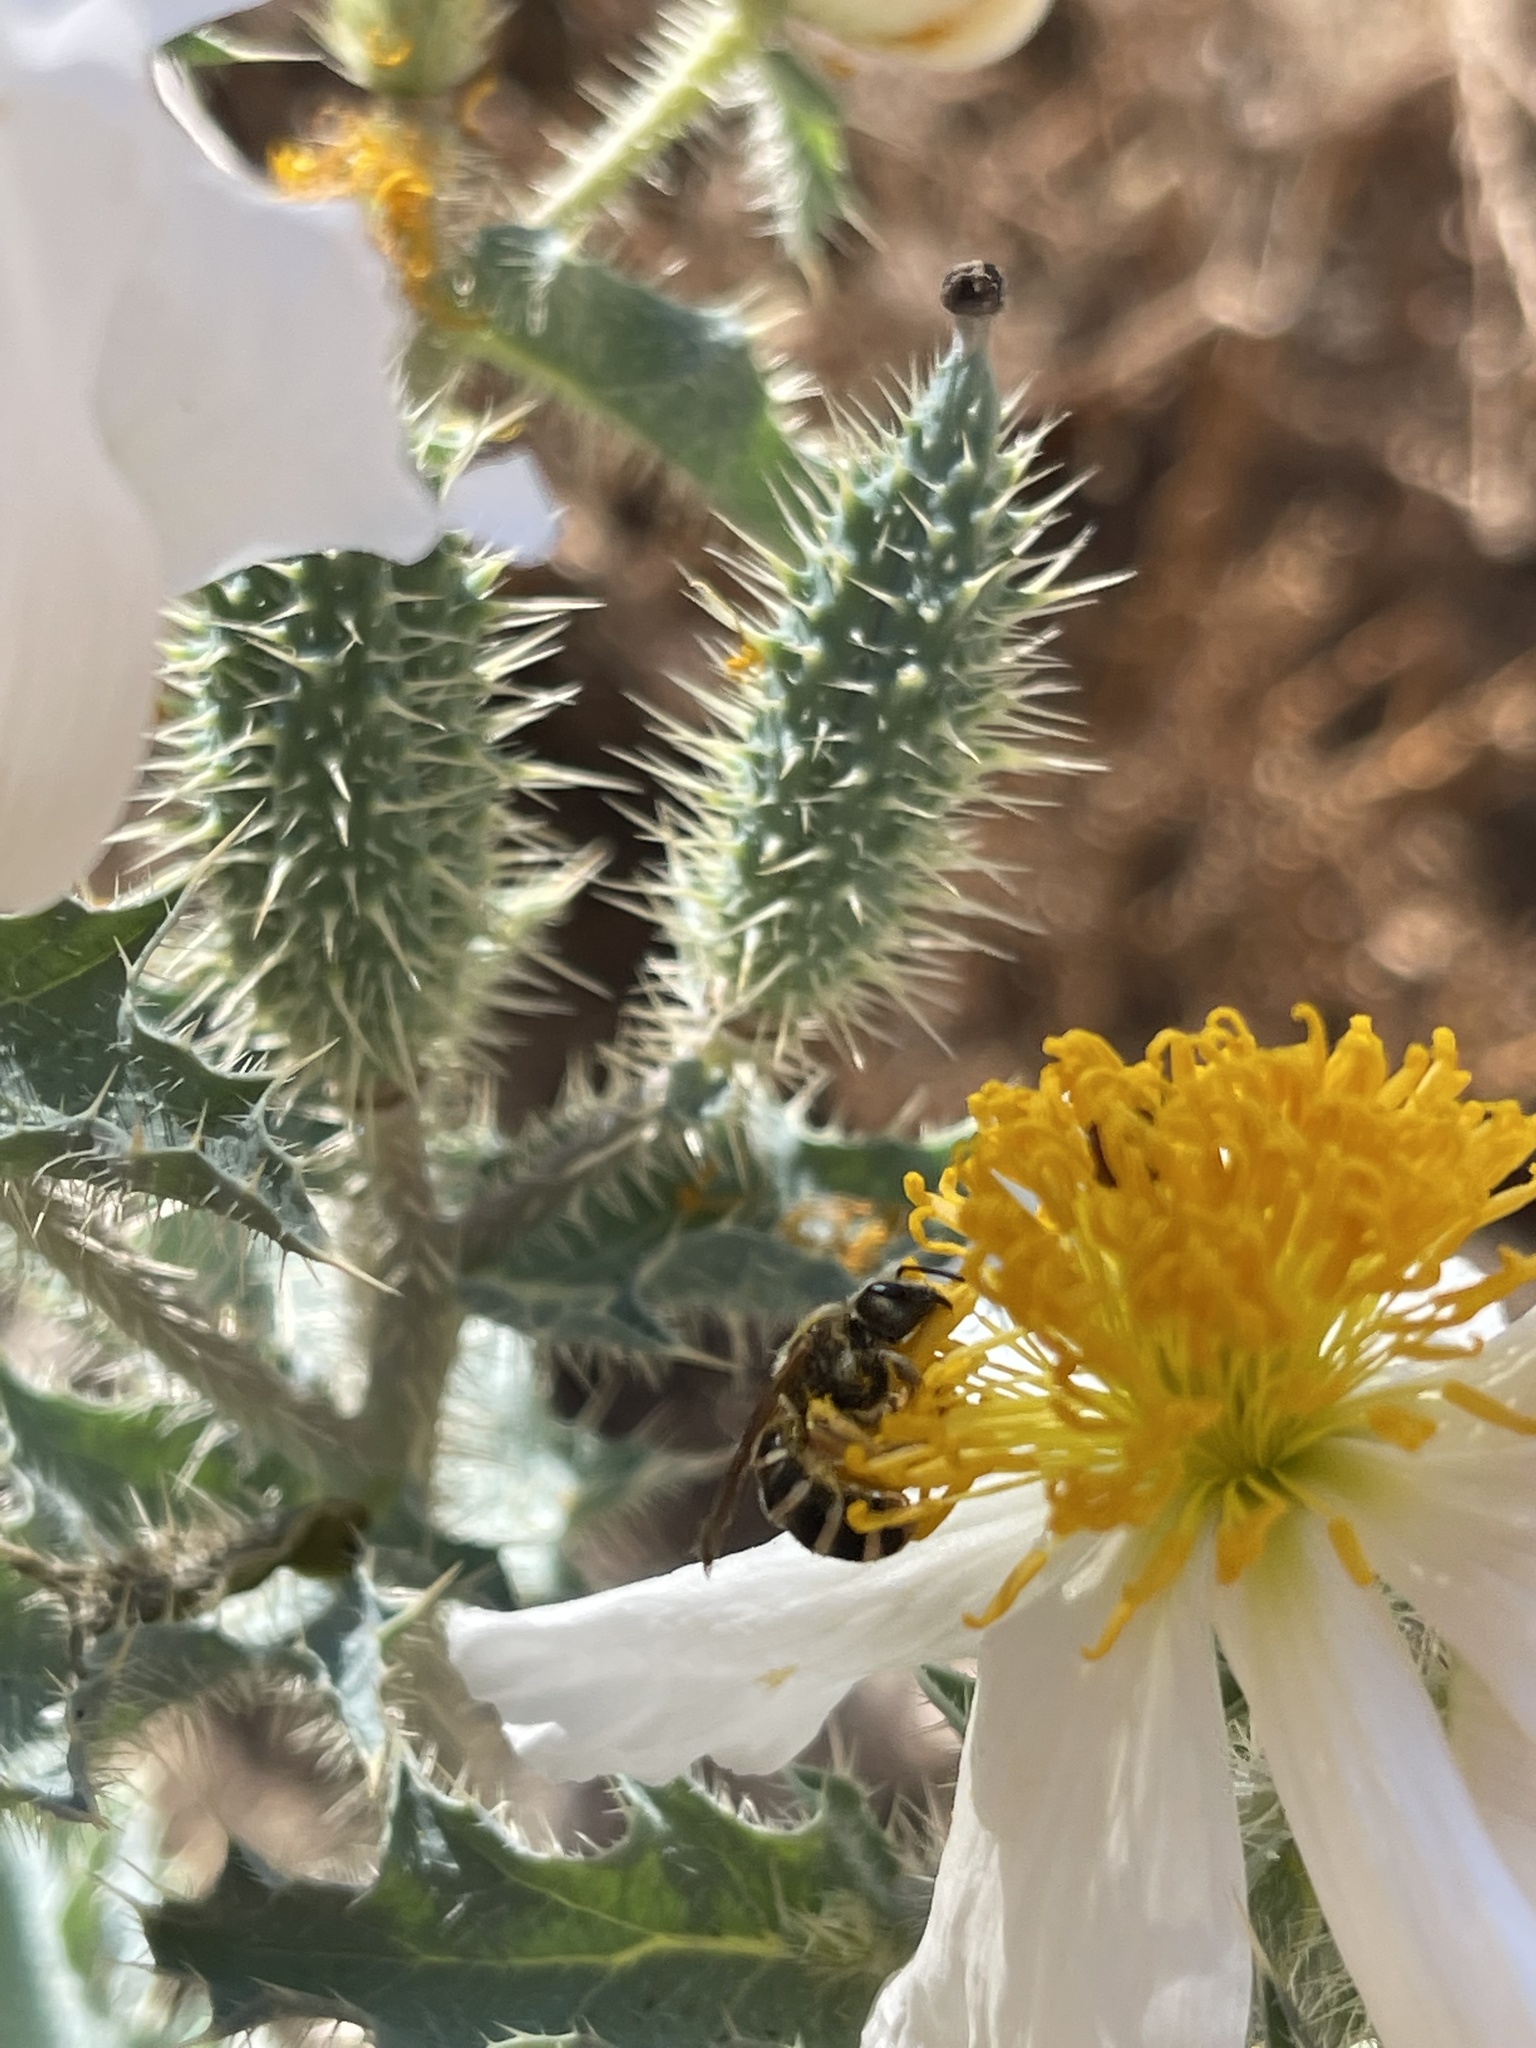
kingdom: Animalia
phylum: Arthropoda
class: Insecta
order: Hymenoptera
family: Halictidae
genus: Halictus
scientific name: Halictus farinosus
